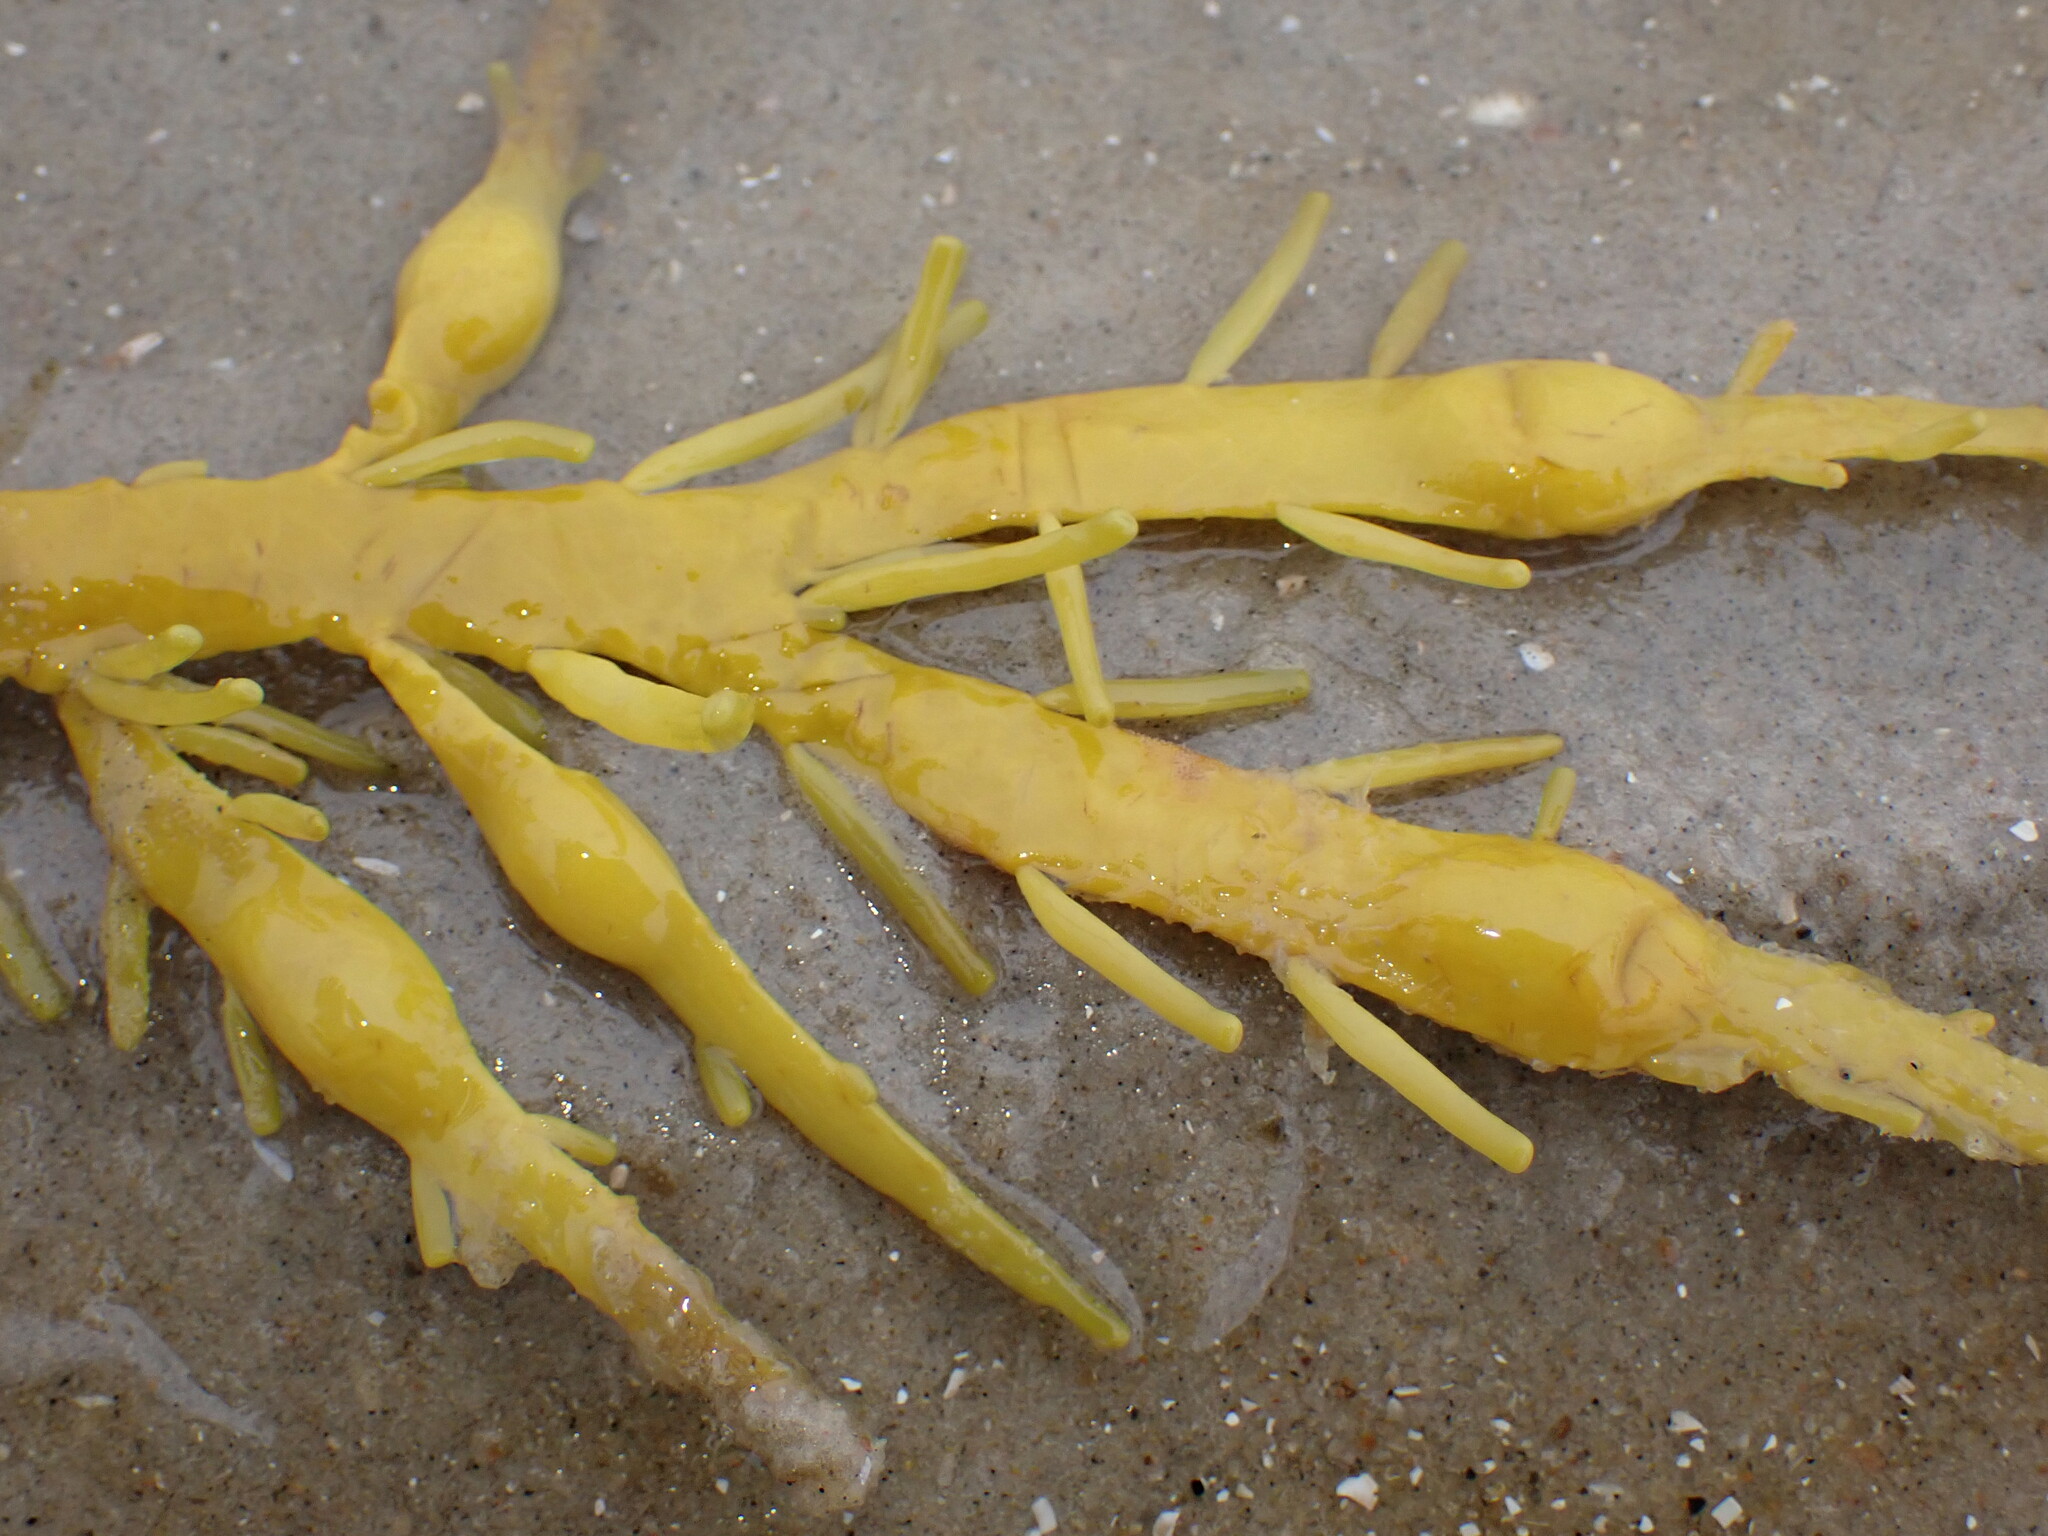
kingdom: Chromista
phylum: Ochrophyta
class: Phaeophyceae
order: Fucales
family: Fucaceae
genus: Ascophyllum
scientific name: Ascophyllum nodosum
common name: Knotted wrack
